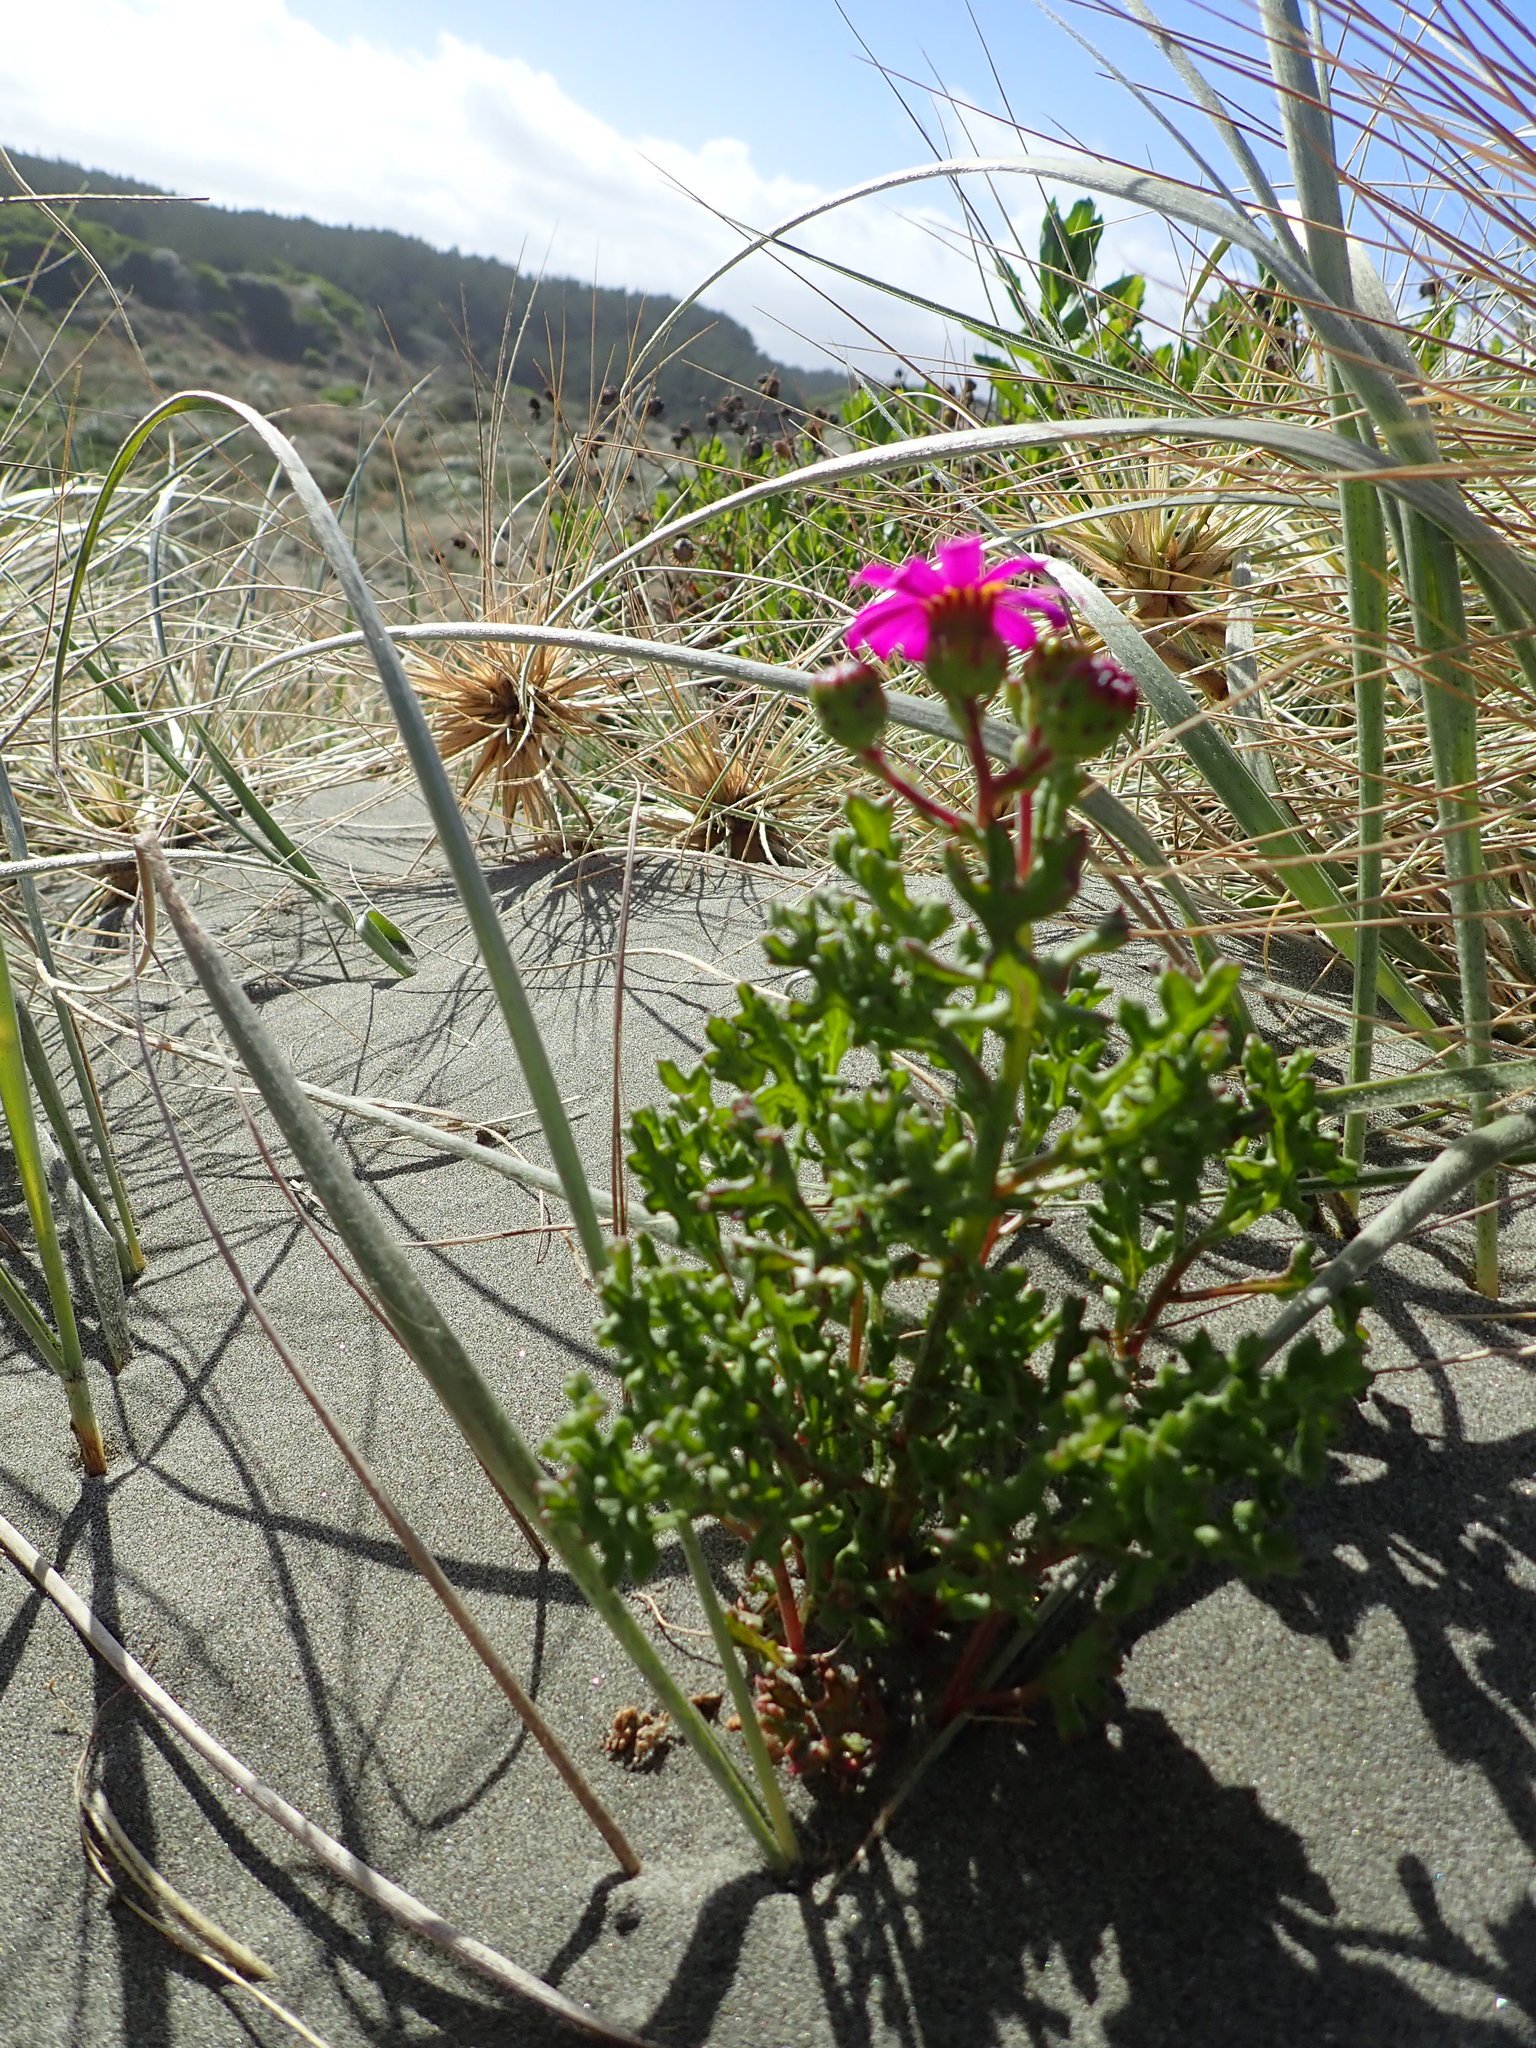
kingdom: Plantae
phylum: Tracheophyta
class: Magnoliopsida
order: Asterales
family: Asteraceae
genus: Senecio
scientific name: Senecio elegans
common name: Purple groundsel
